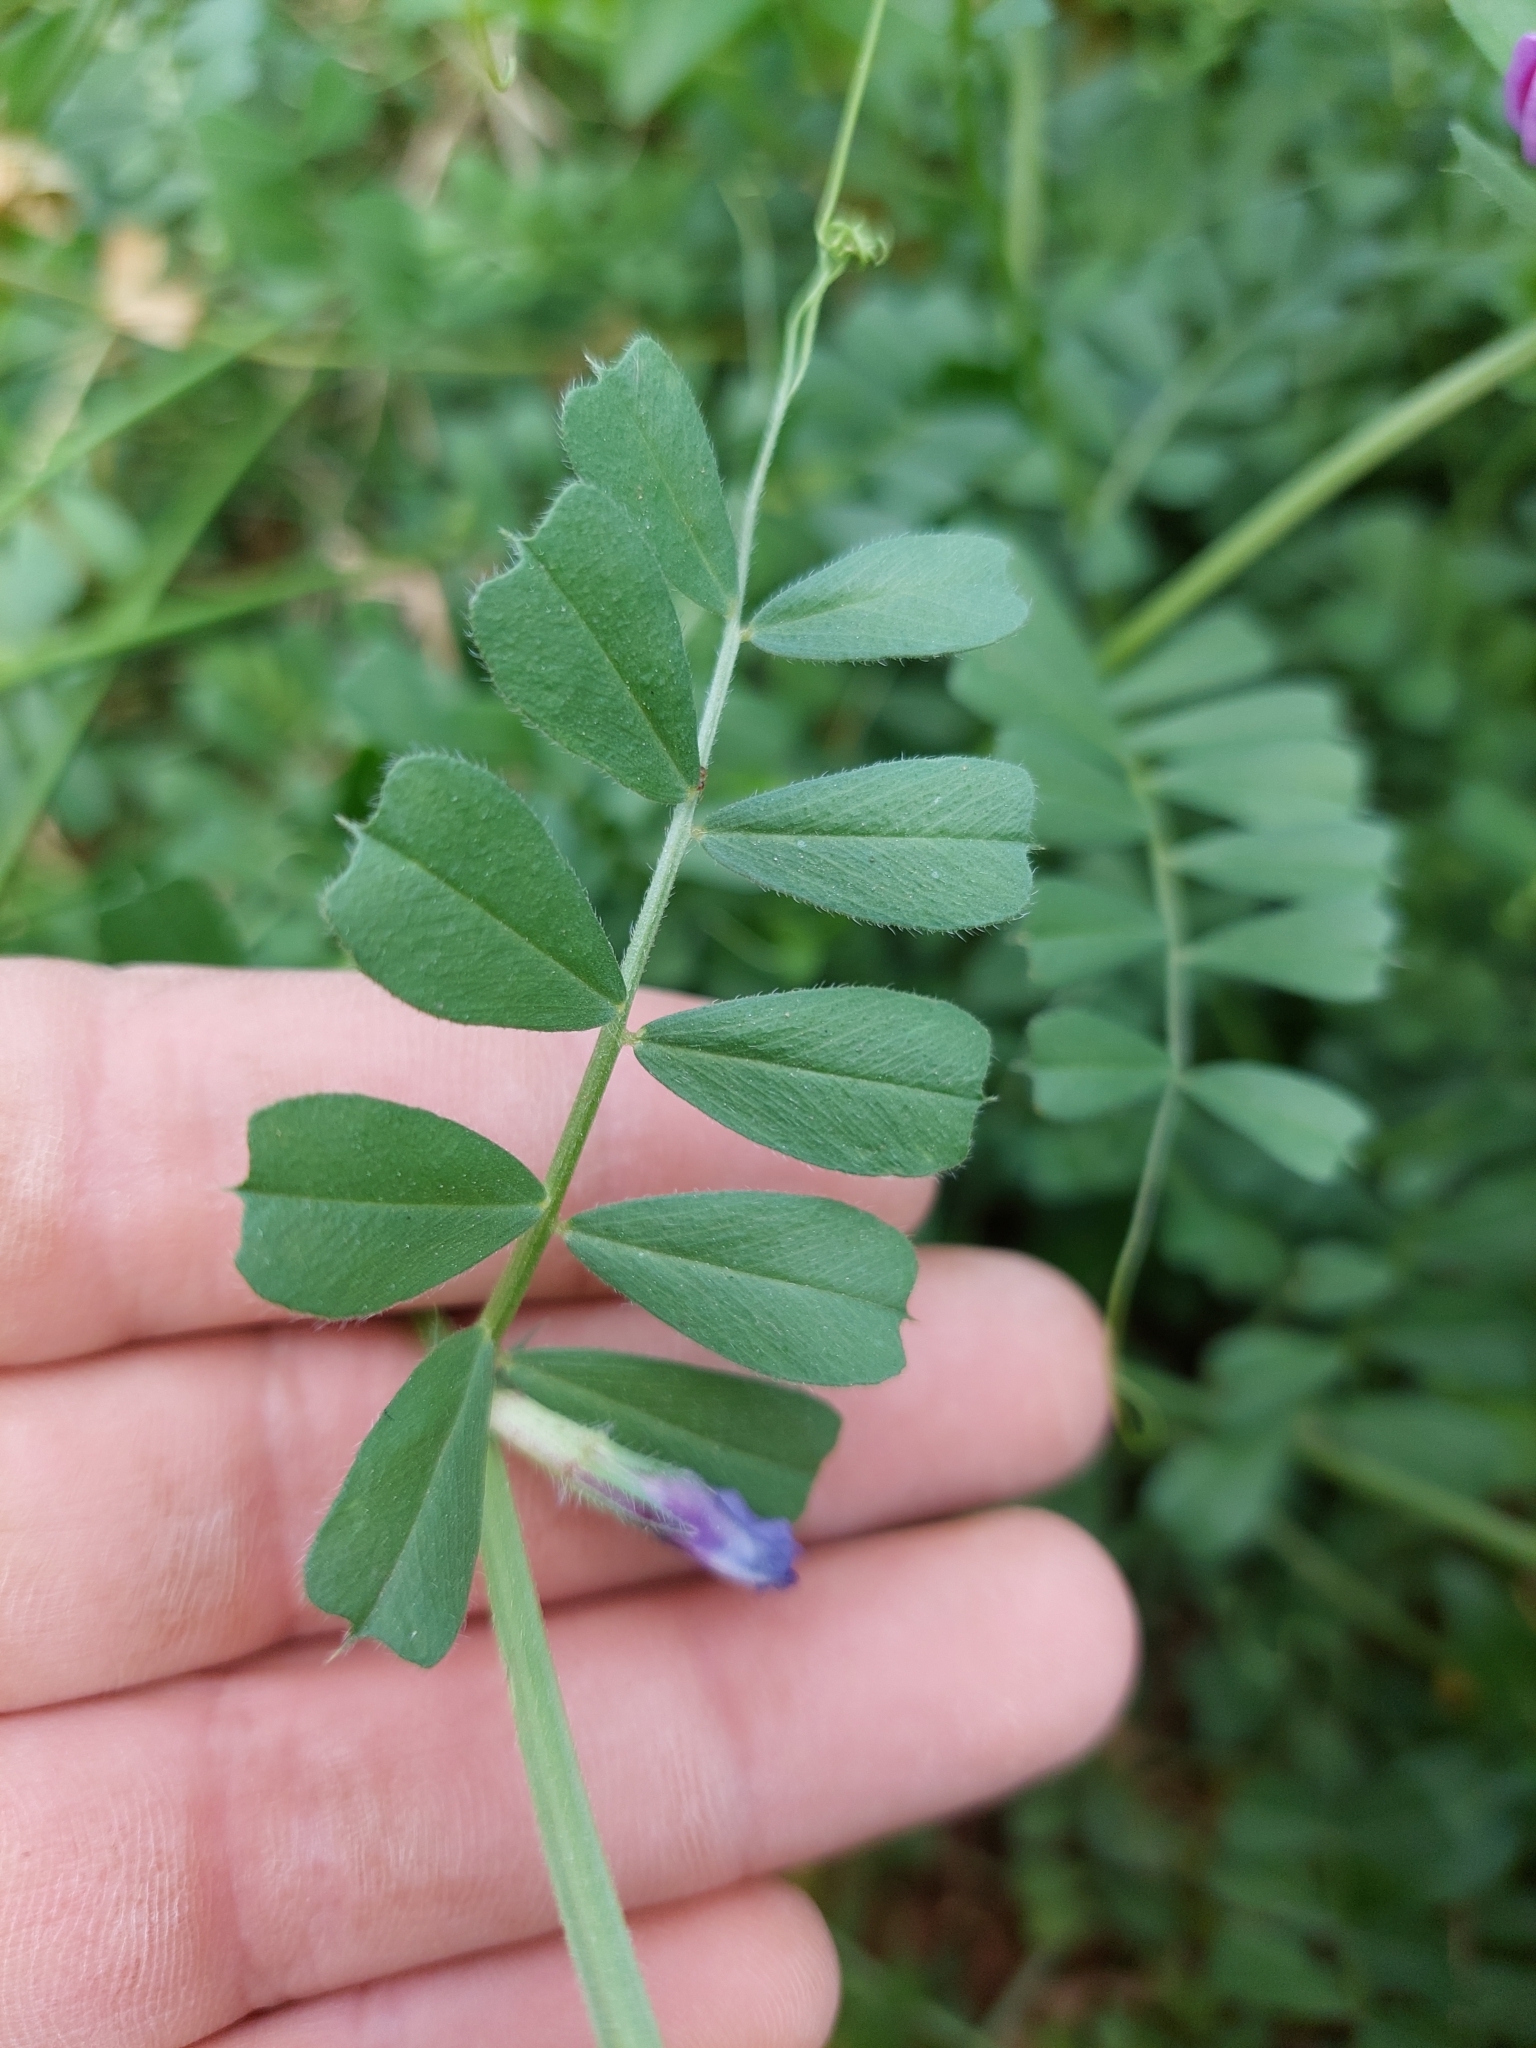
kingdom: Plantae
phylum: Tracheophyta
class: Magnoliopsida
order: Fabales
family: Fabaceae
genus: Vicia
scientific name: Vicia sativa
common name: Garden vetch
